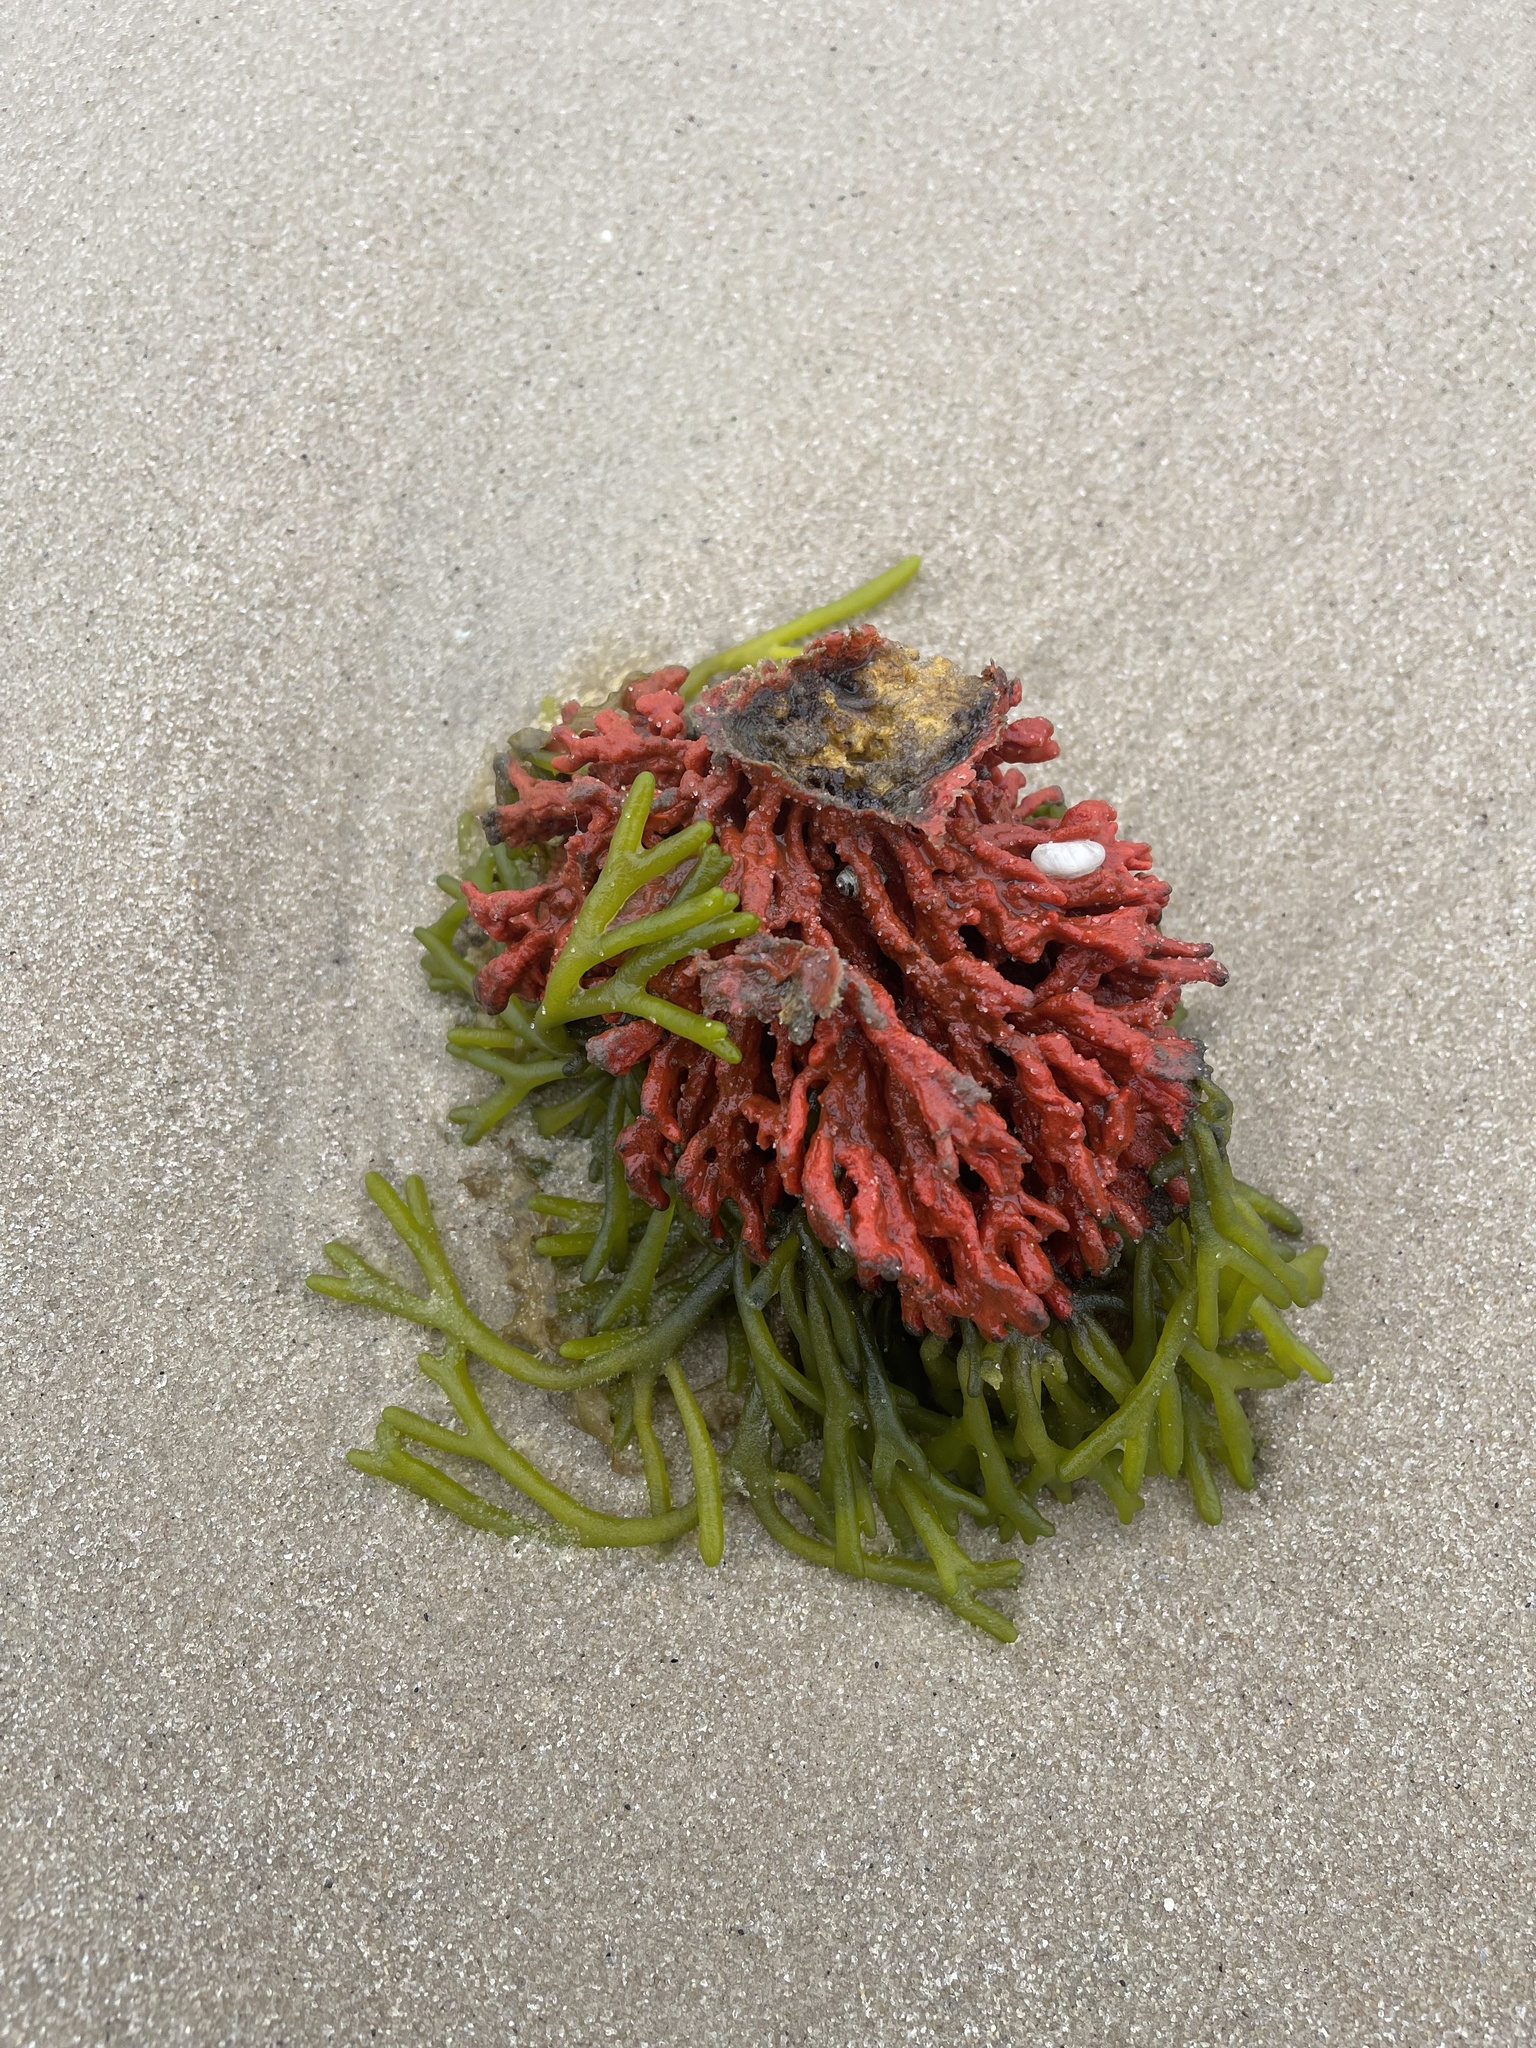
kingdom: Plantae
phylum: Chlorophyta
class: Ulvophyceae
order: Bryopsidales
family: Codiaceae
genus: Codium
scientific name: Codium fragile
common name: Dead man's fingers
